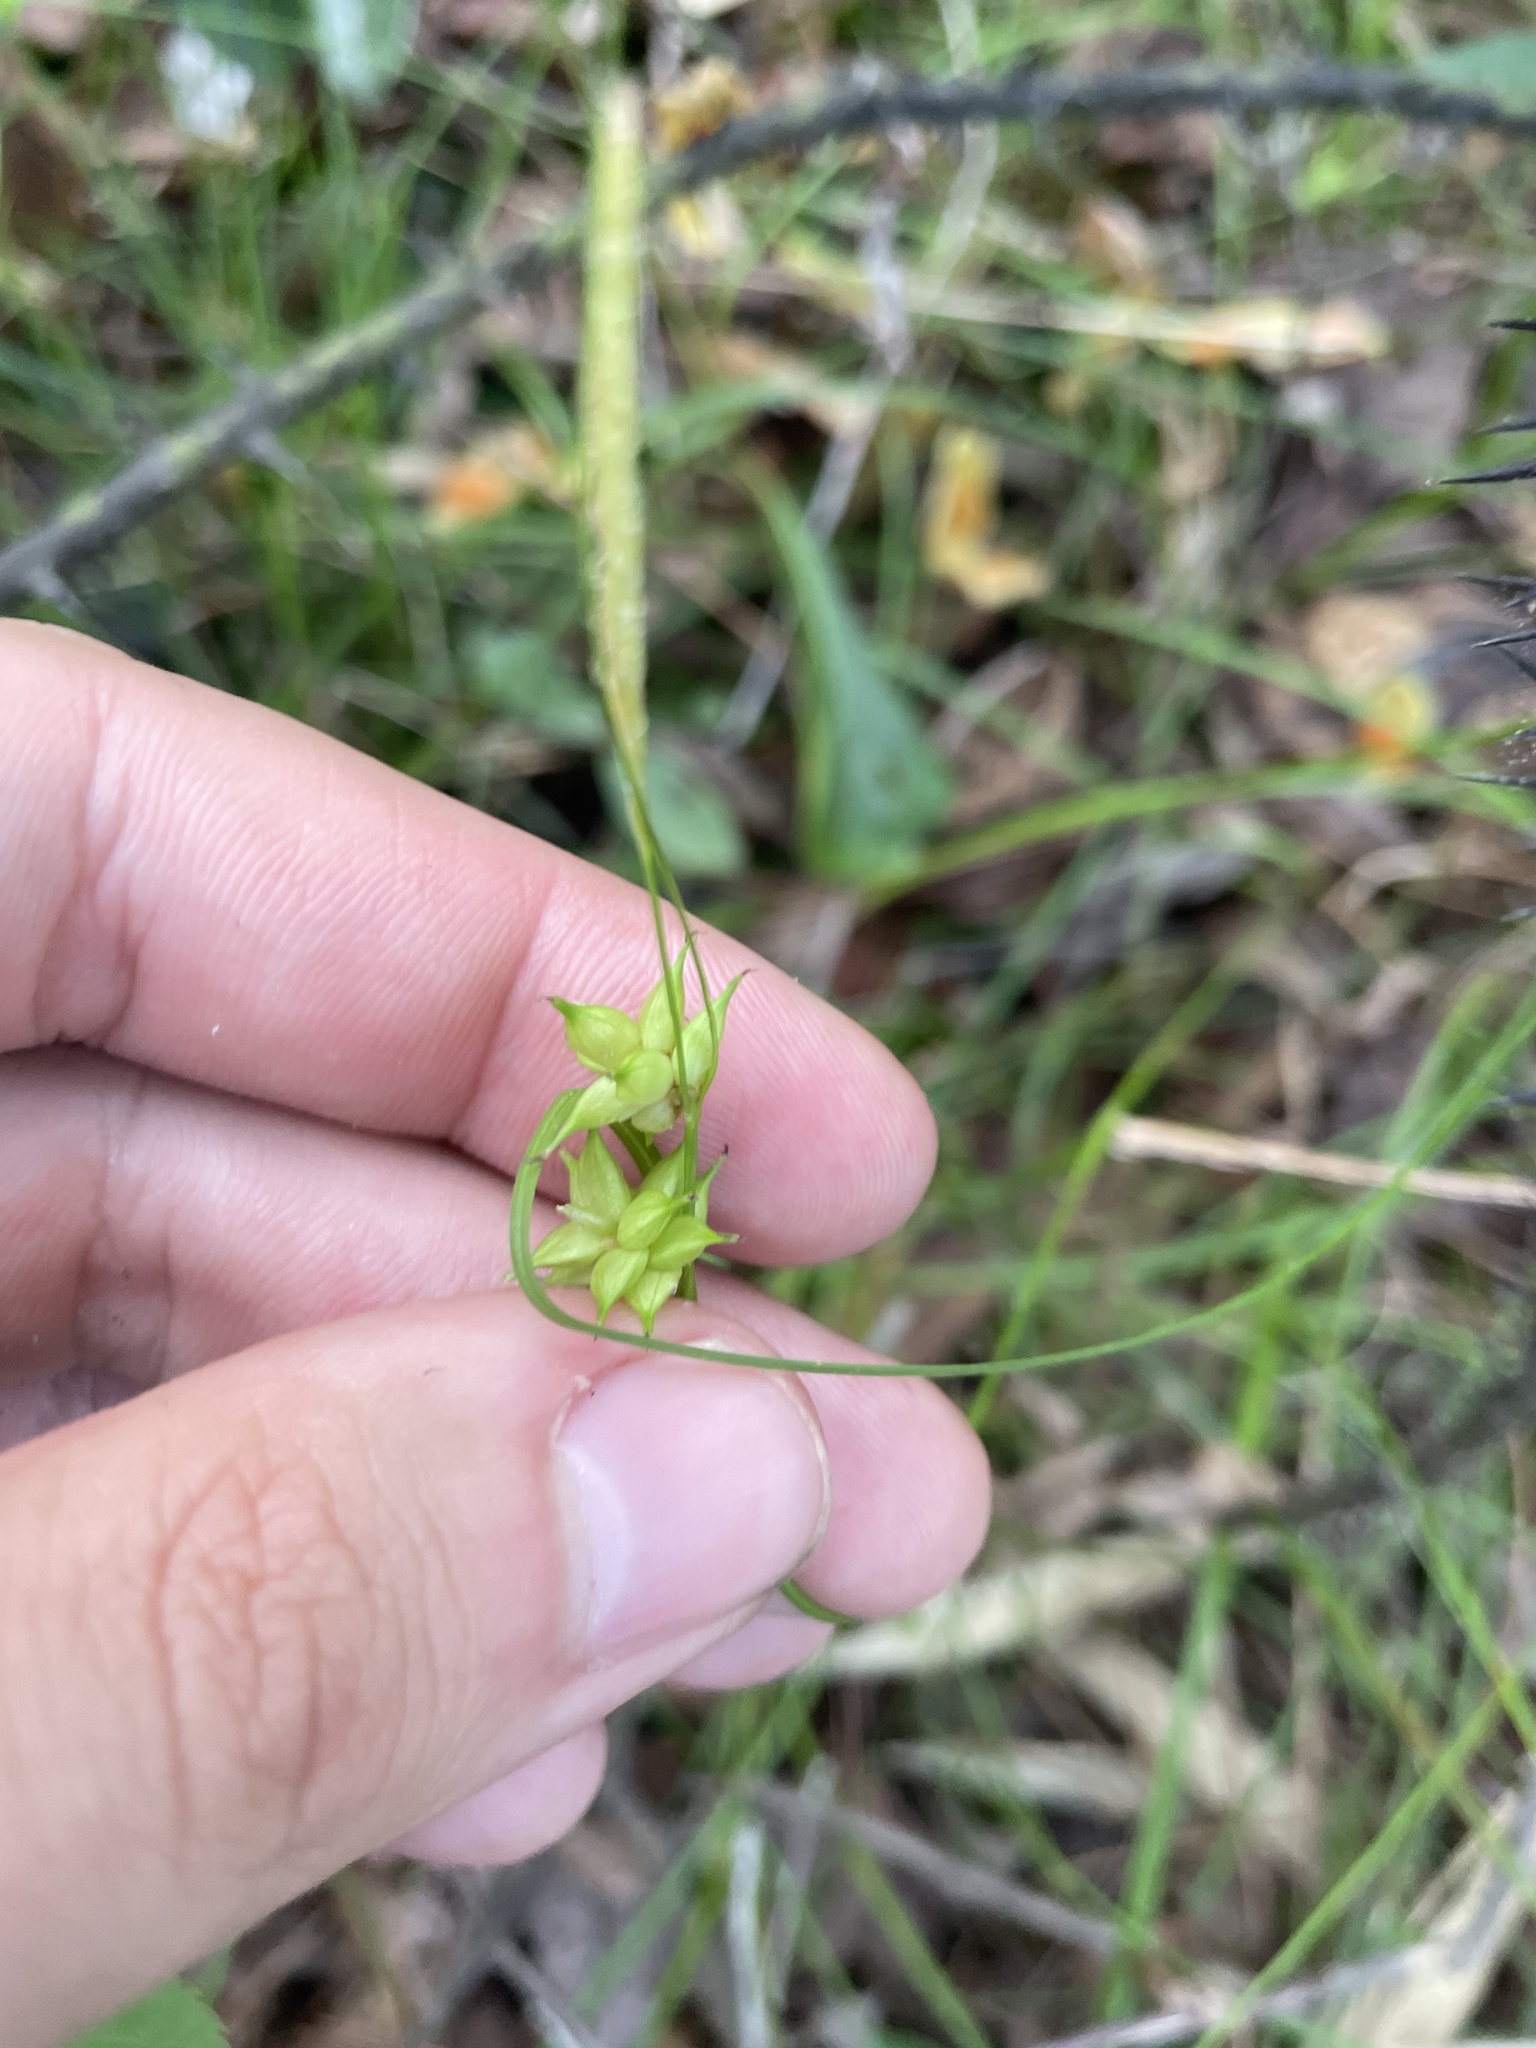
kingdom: Plantae
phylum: Tracheophyta
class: Liliopsida
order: Poales
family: Cyperaceae
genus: Carex
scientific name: Carex elliottii
